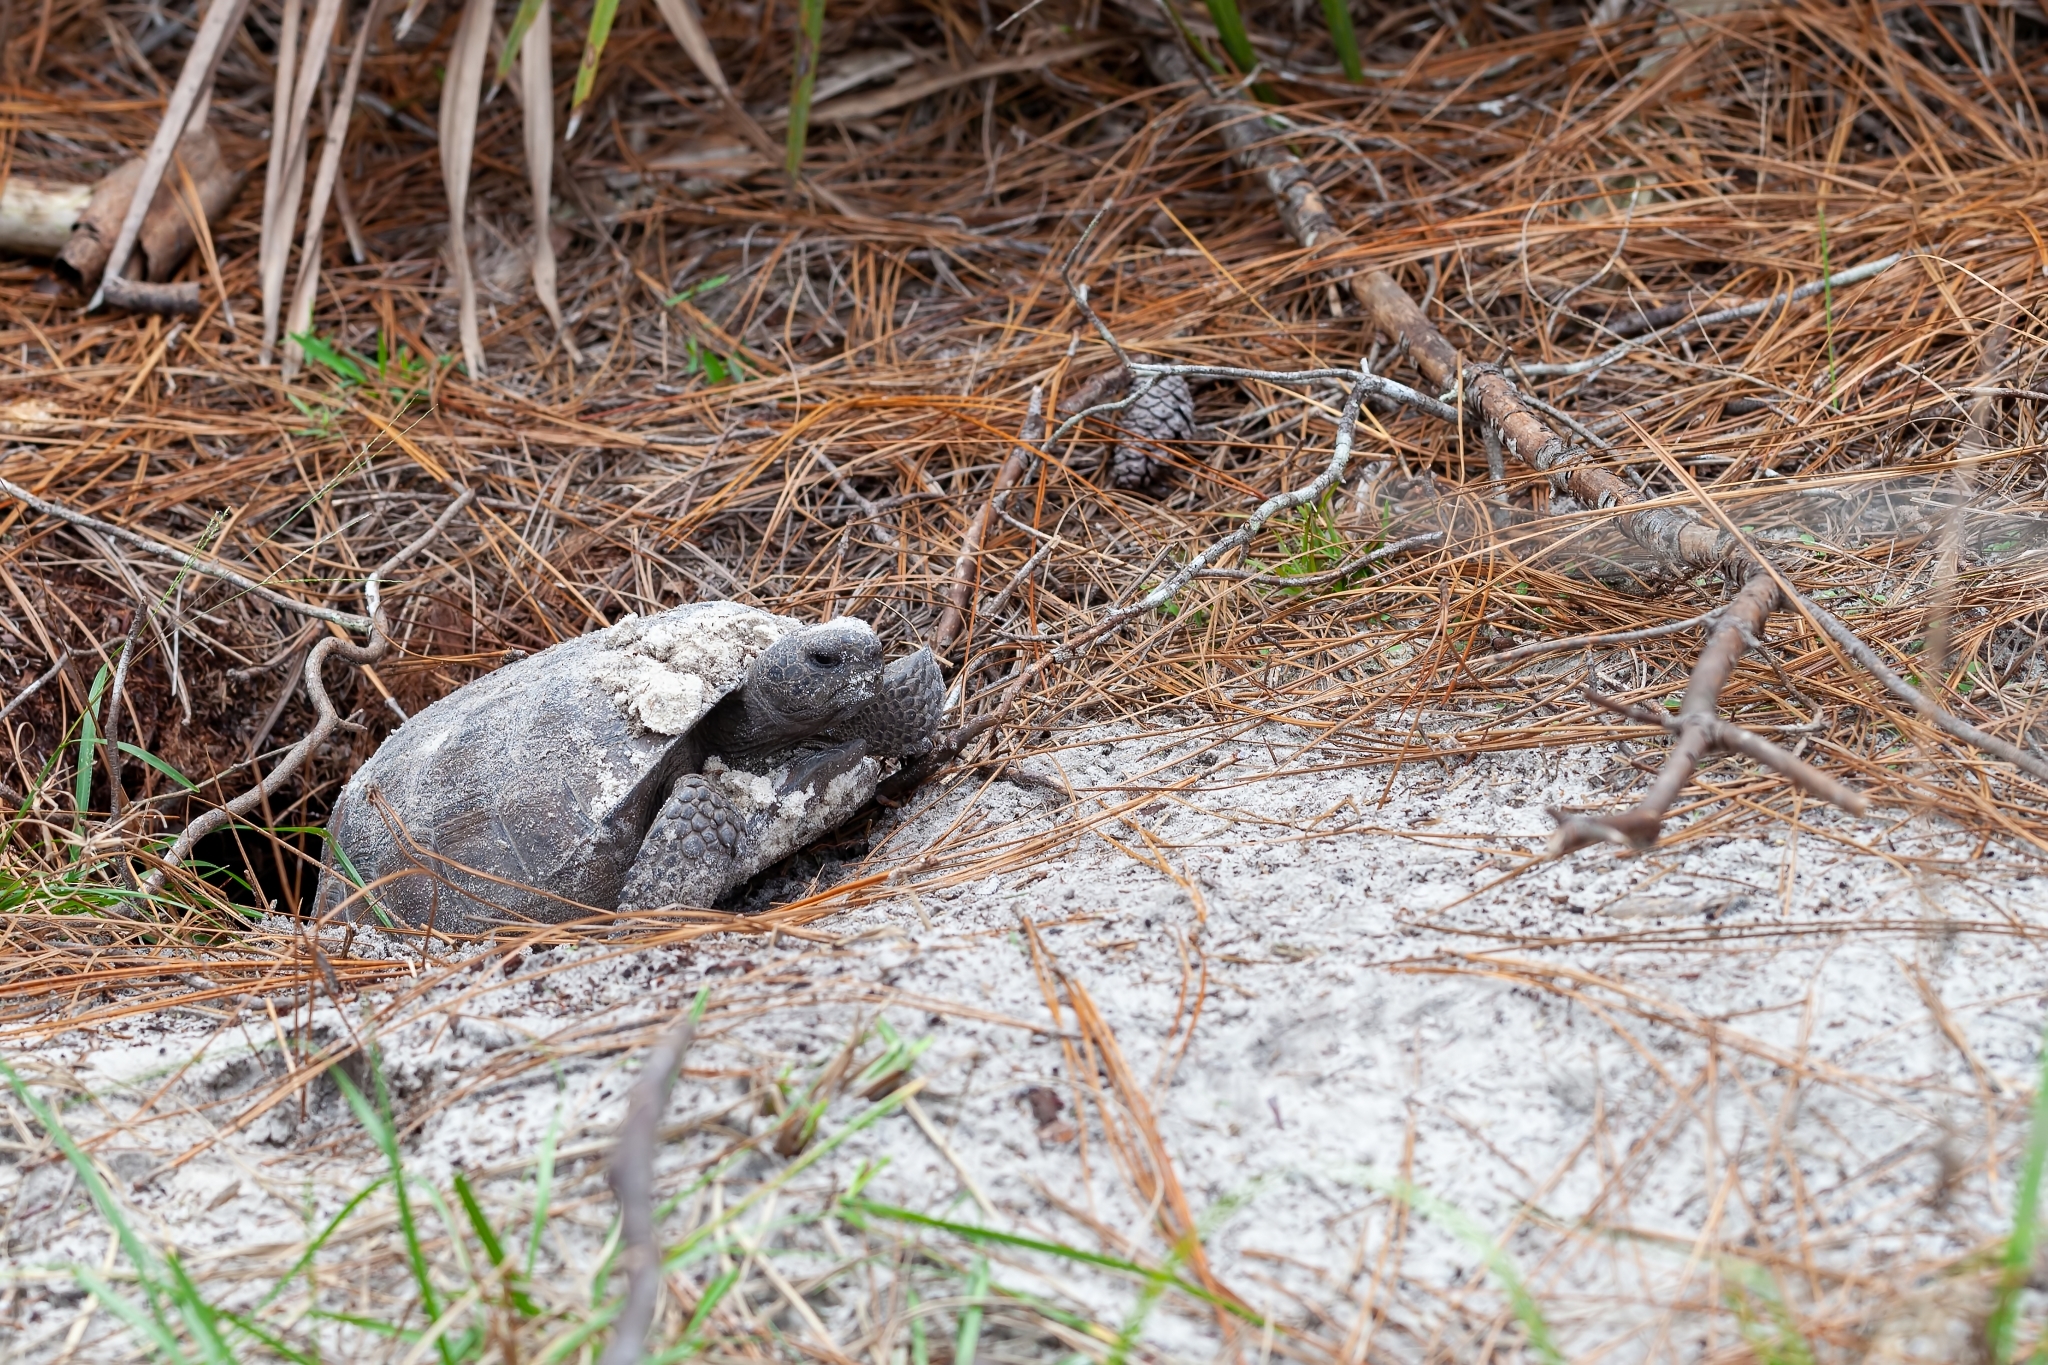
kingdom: Animalia
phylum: Chordata
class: Testudines
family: Testudinidae
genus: Gopherus
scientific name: Gopherus polyphemus
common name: Florida gopher tortoise
